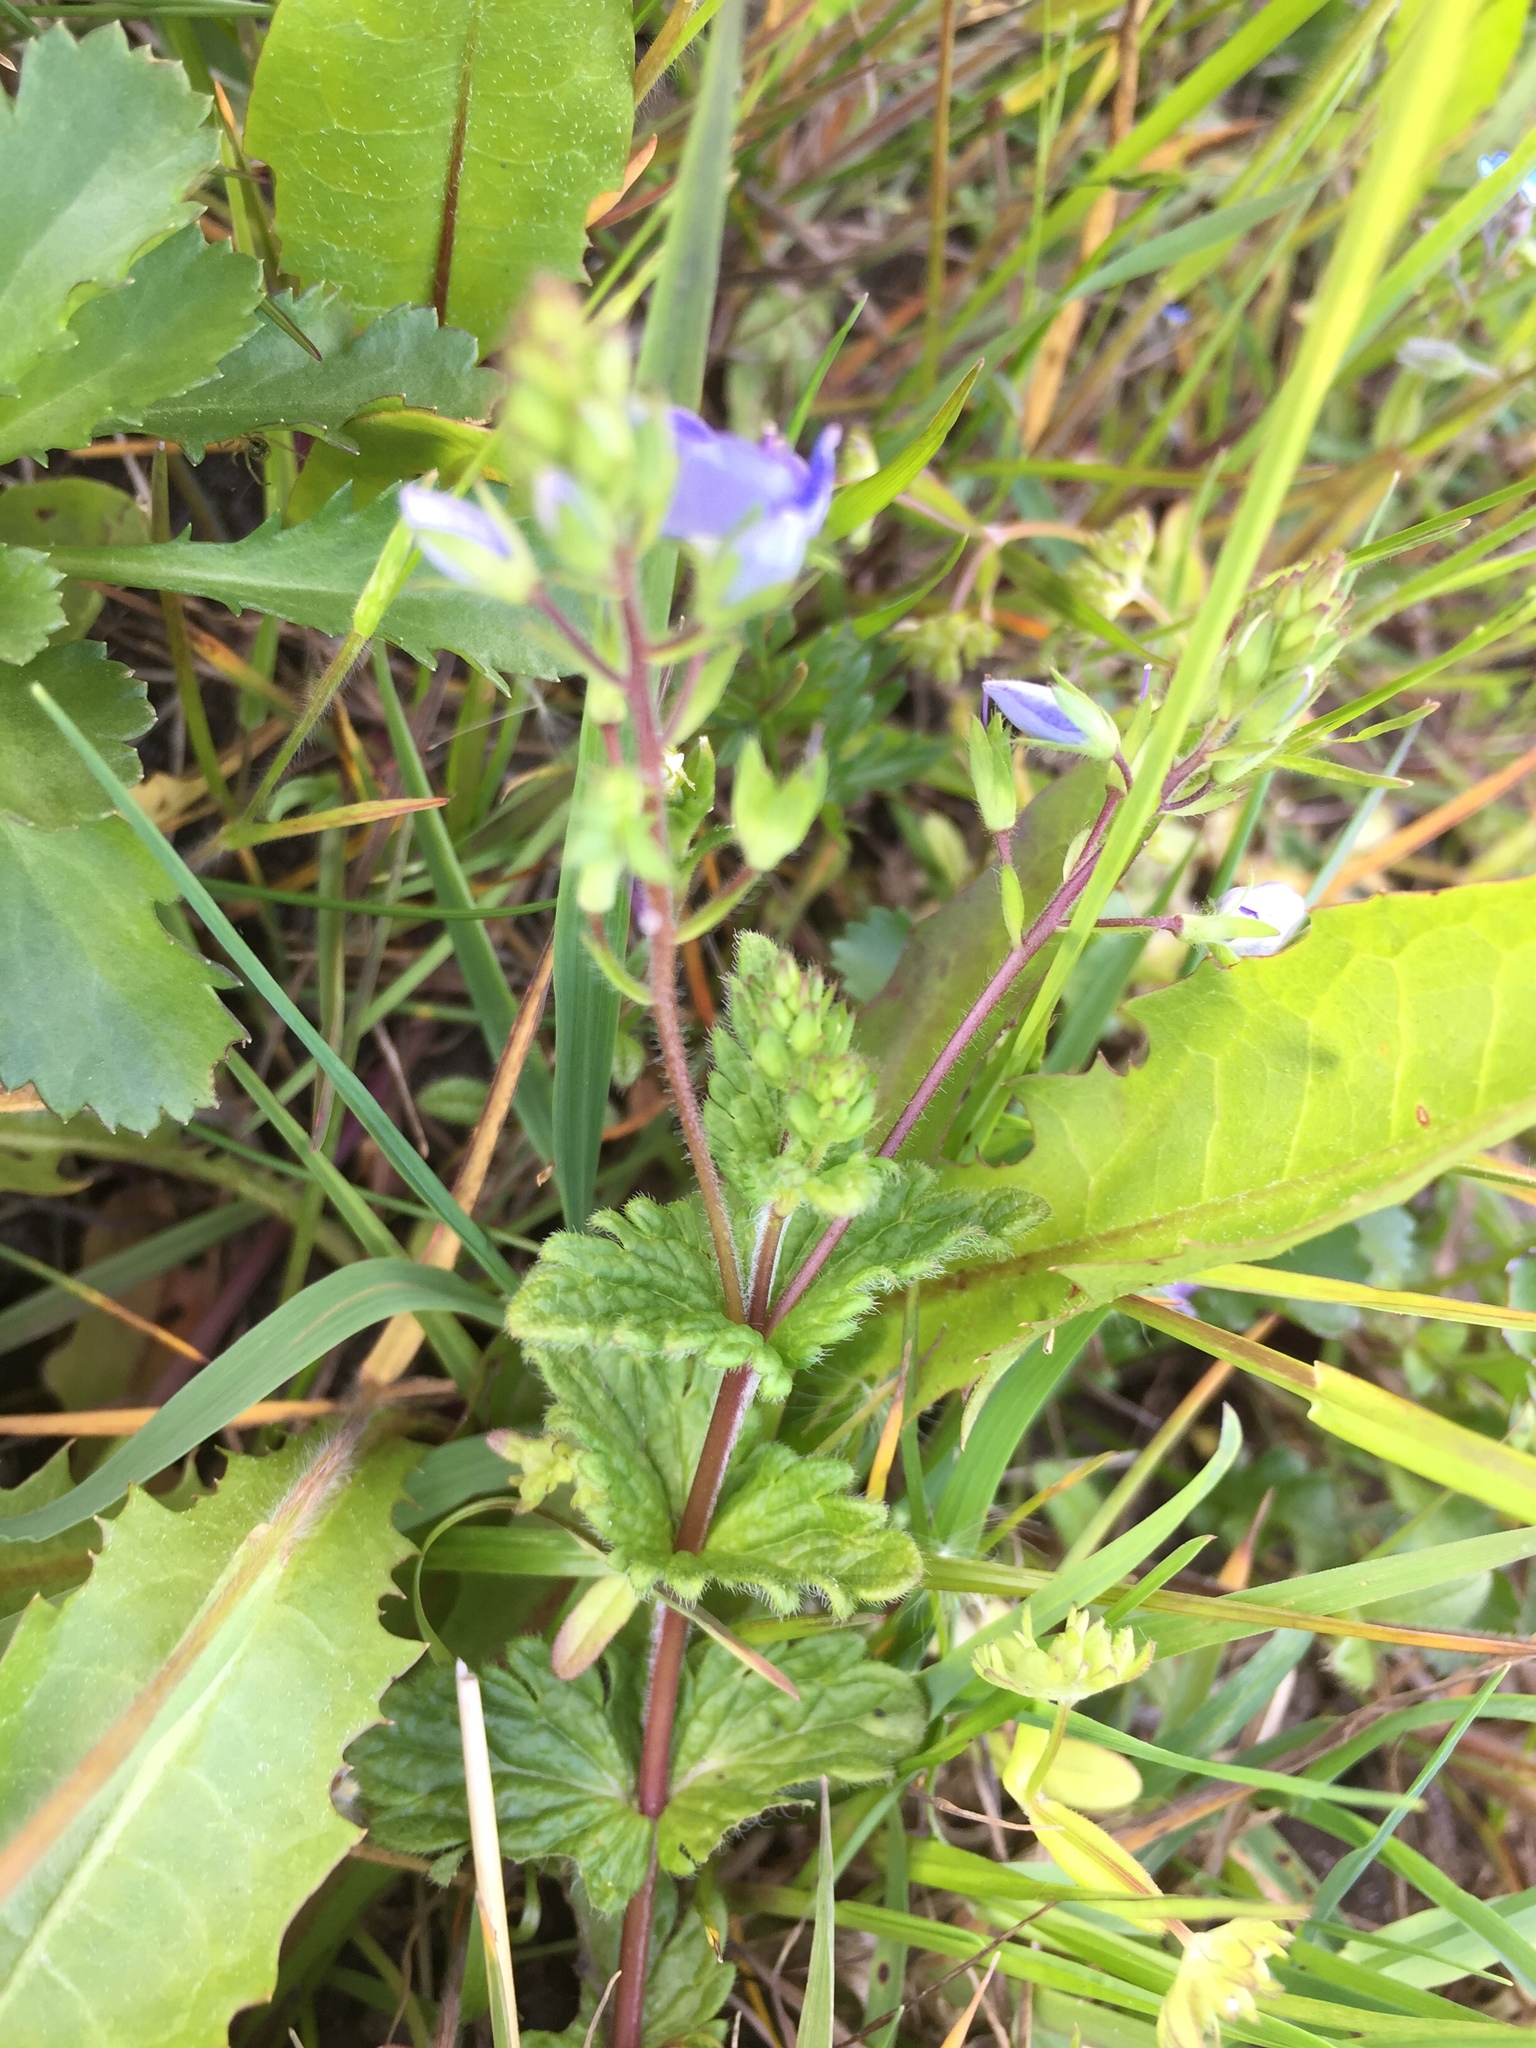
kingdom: Plantae
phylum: Tracheophyta
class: Magnoliopsida
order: Lamiales
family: Plantaginaceae
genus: Veronica
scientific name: Veronica chamaedrys
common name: Germander speedwell
